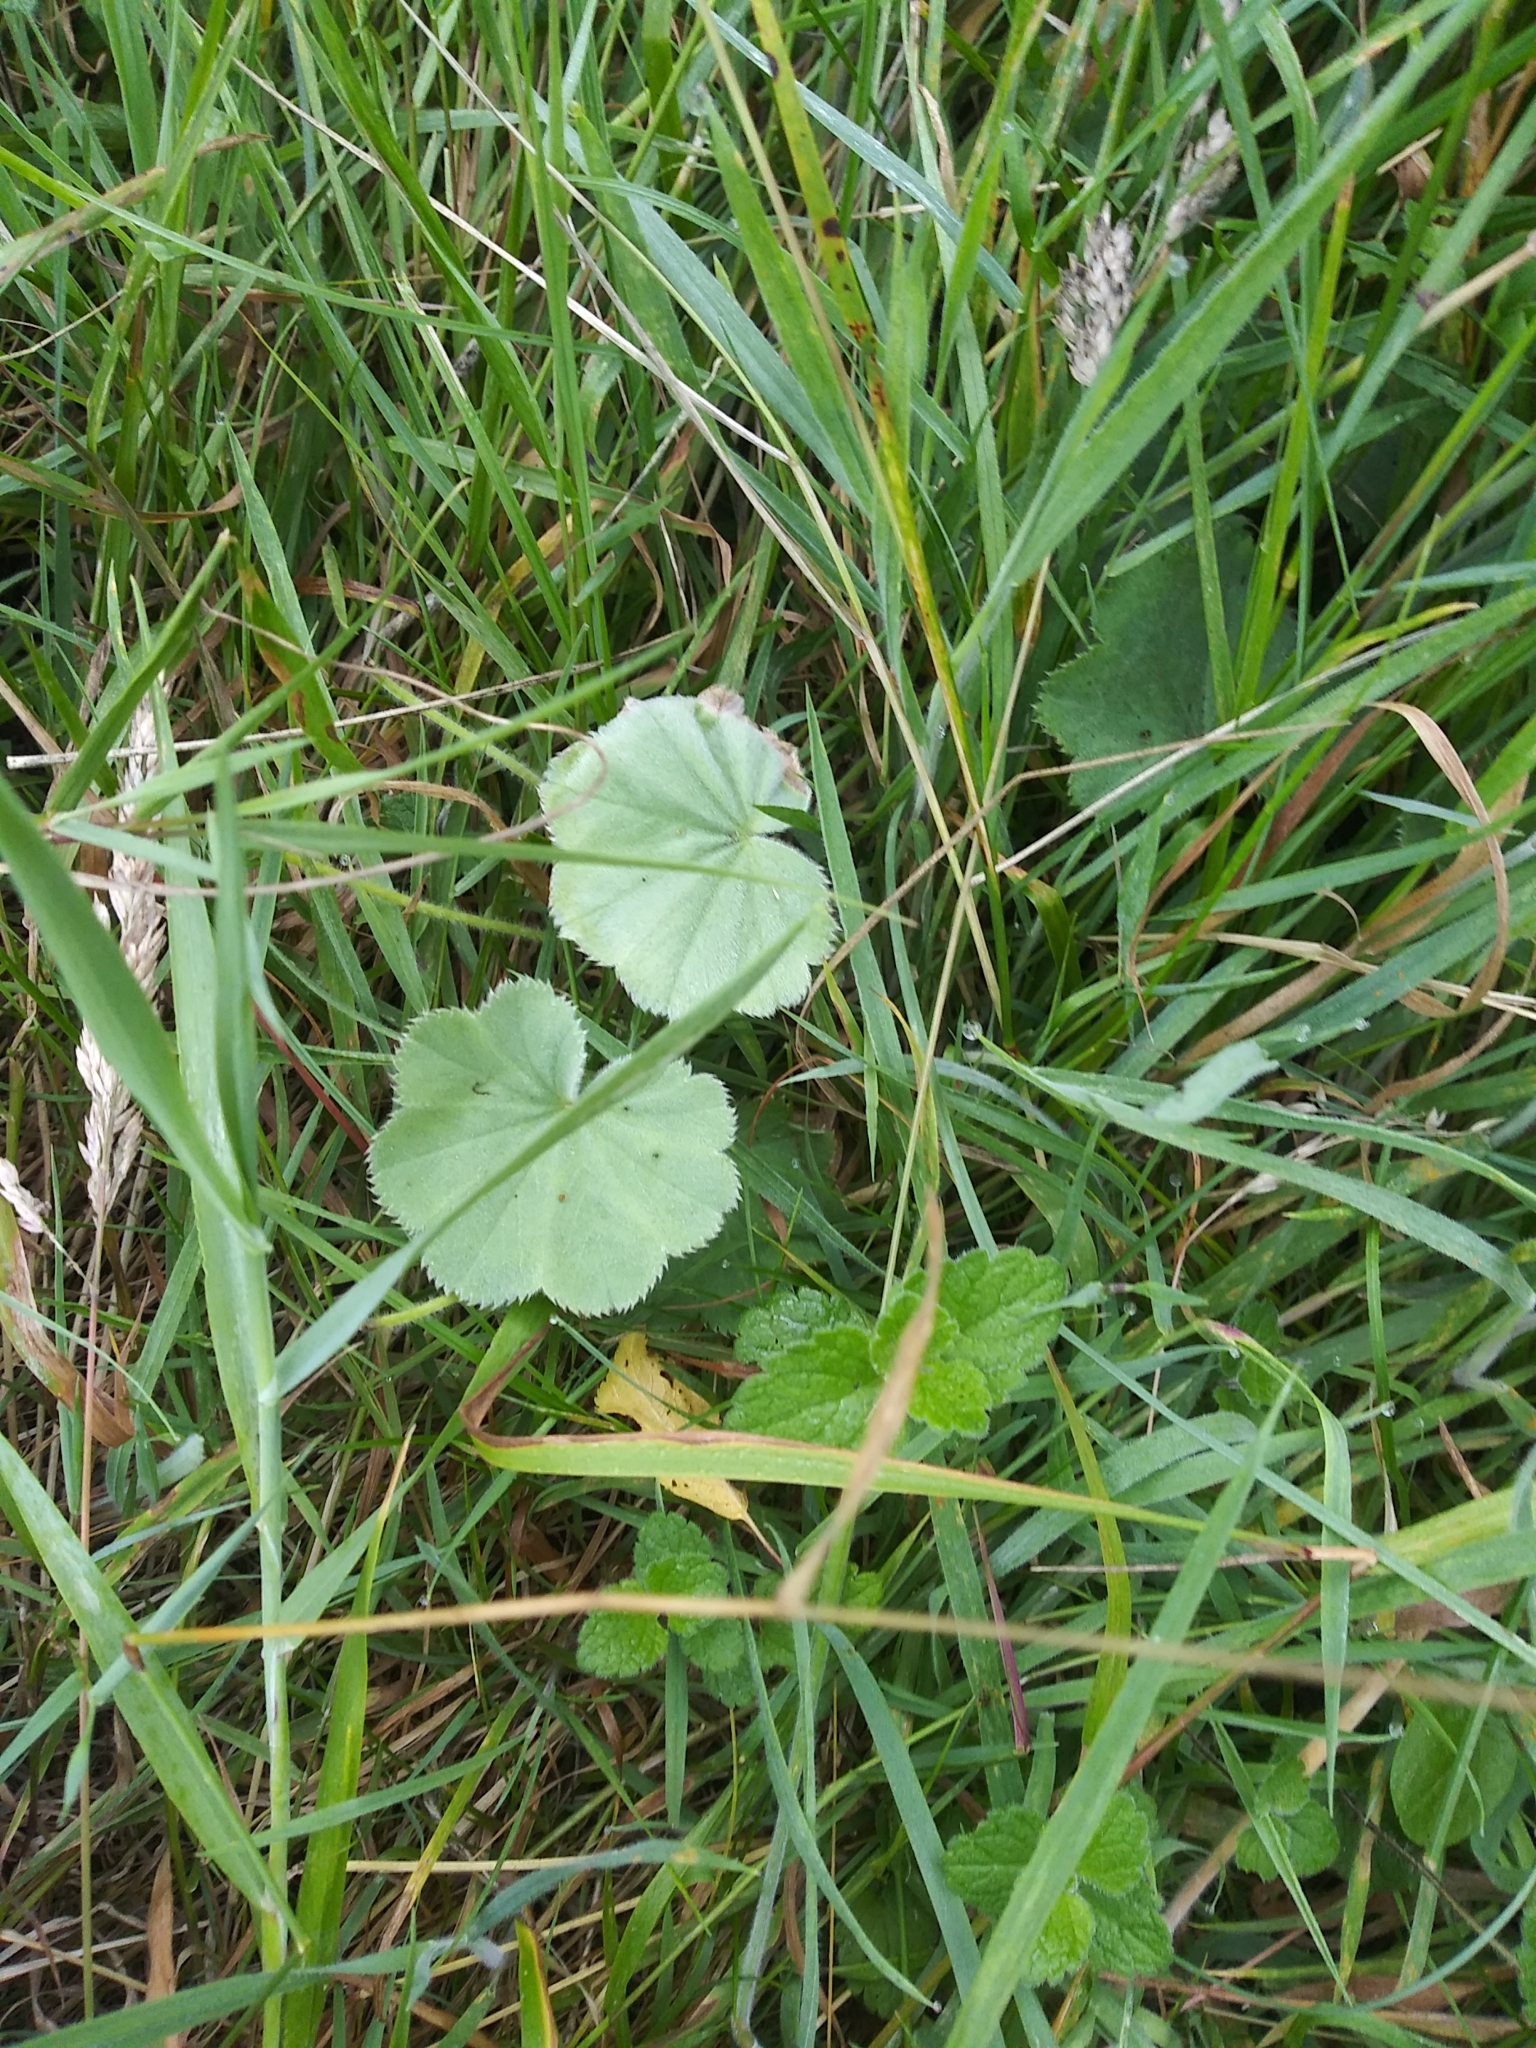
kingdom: Plantae
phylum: Tracheophyta
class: Magnoliopsida
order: Rosales
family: Rosaceae
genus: Alchemilla
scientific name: Alchemilla mollis
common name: Lady's-mantle
